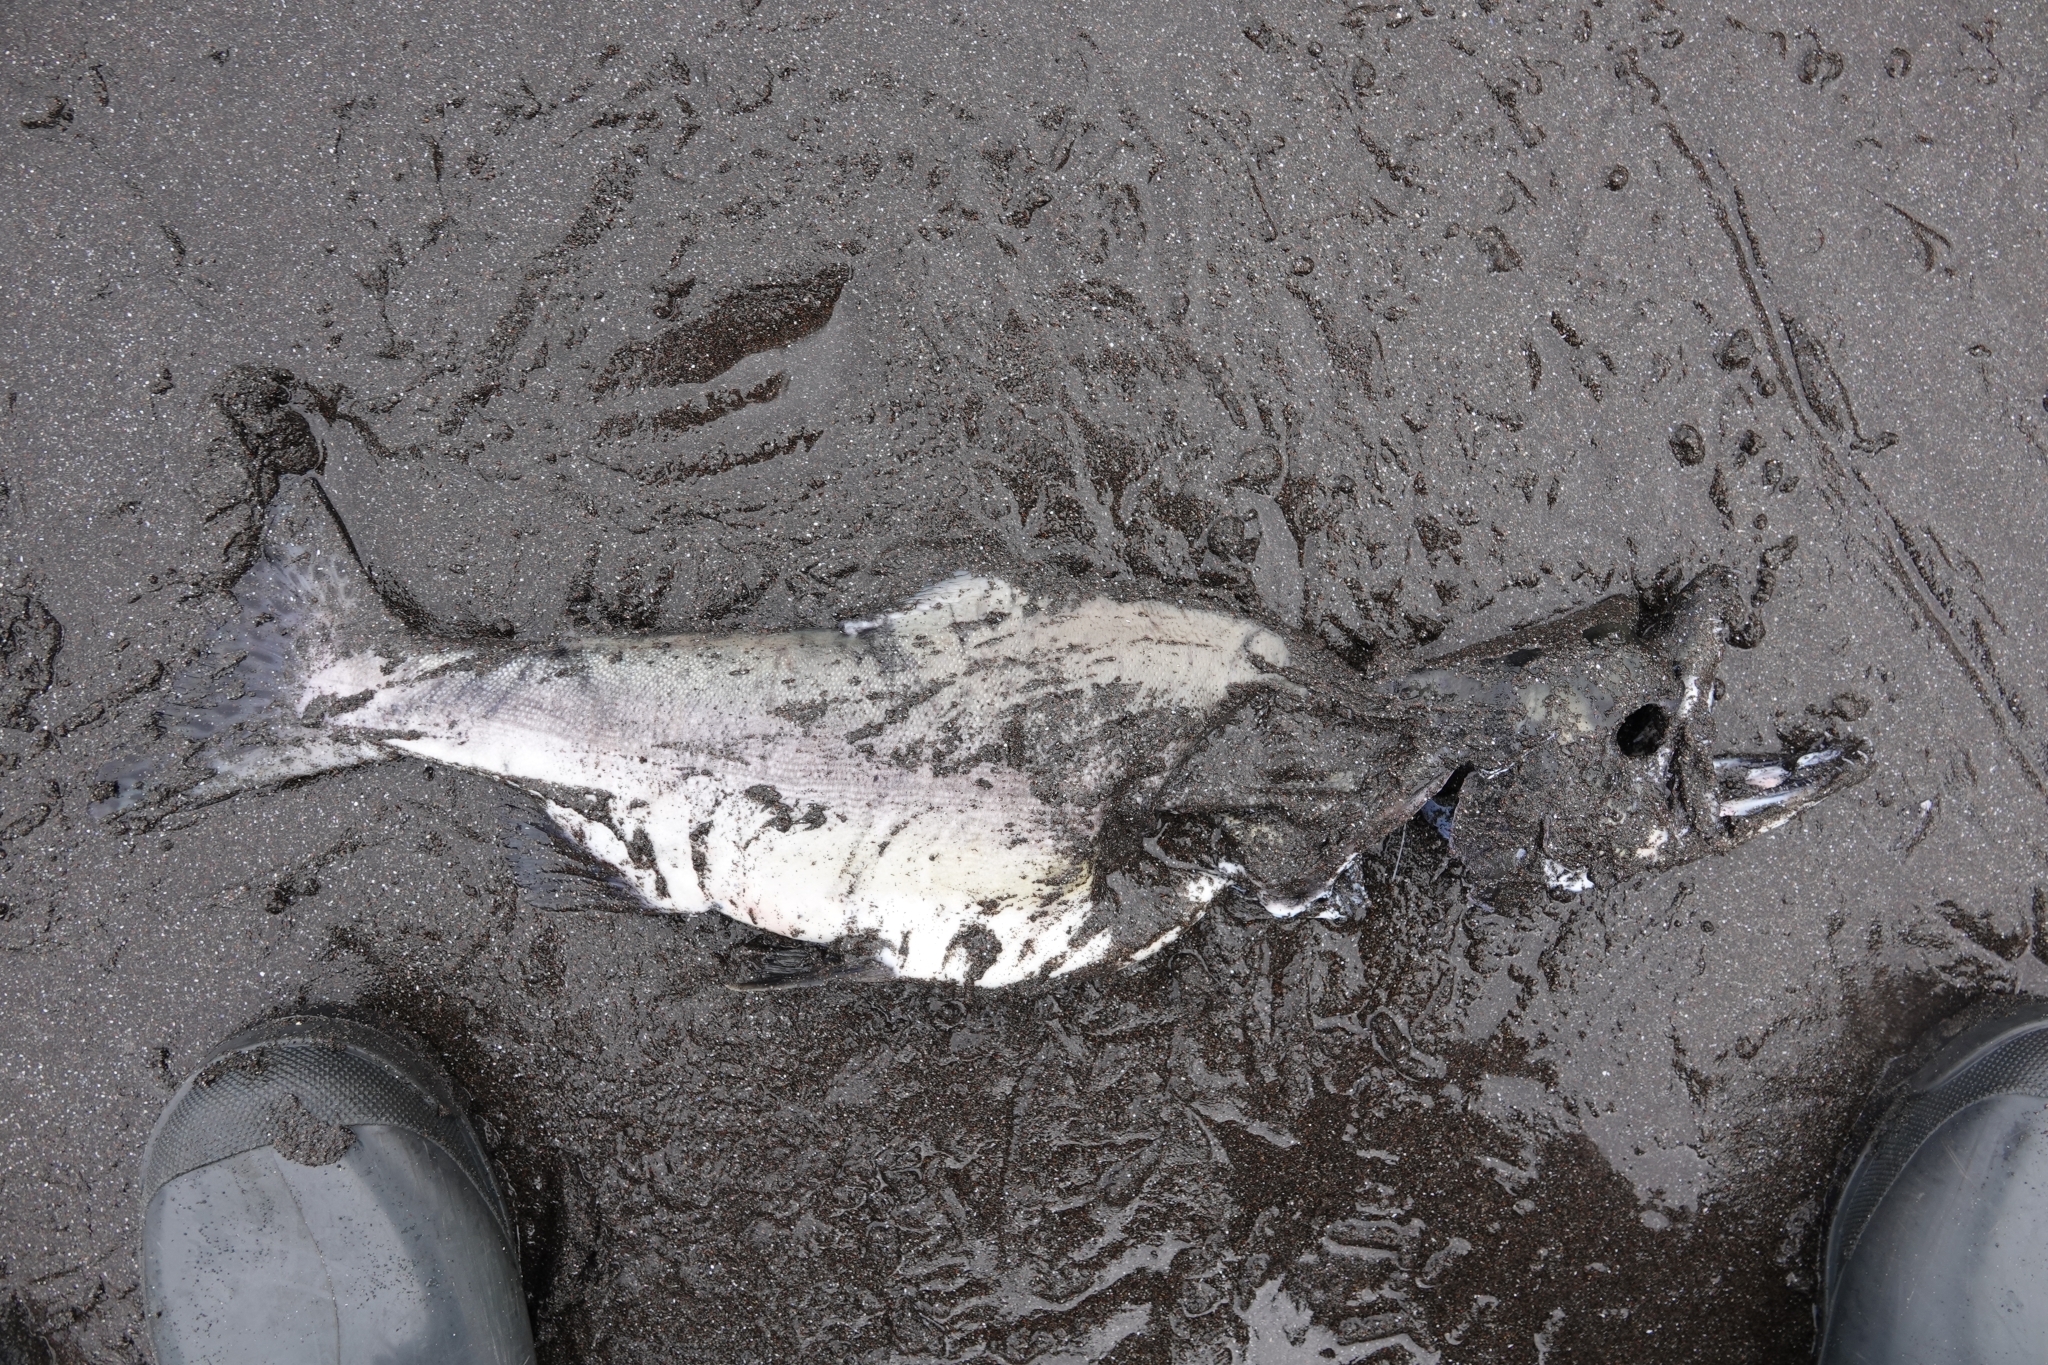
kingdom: Animalia
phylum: Chordata
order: Salmoniformes
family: Salmonidae
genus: Oncorhynchus
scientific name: Oncorhynchus gorbuscha
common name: Humpback salmon
